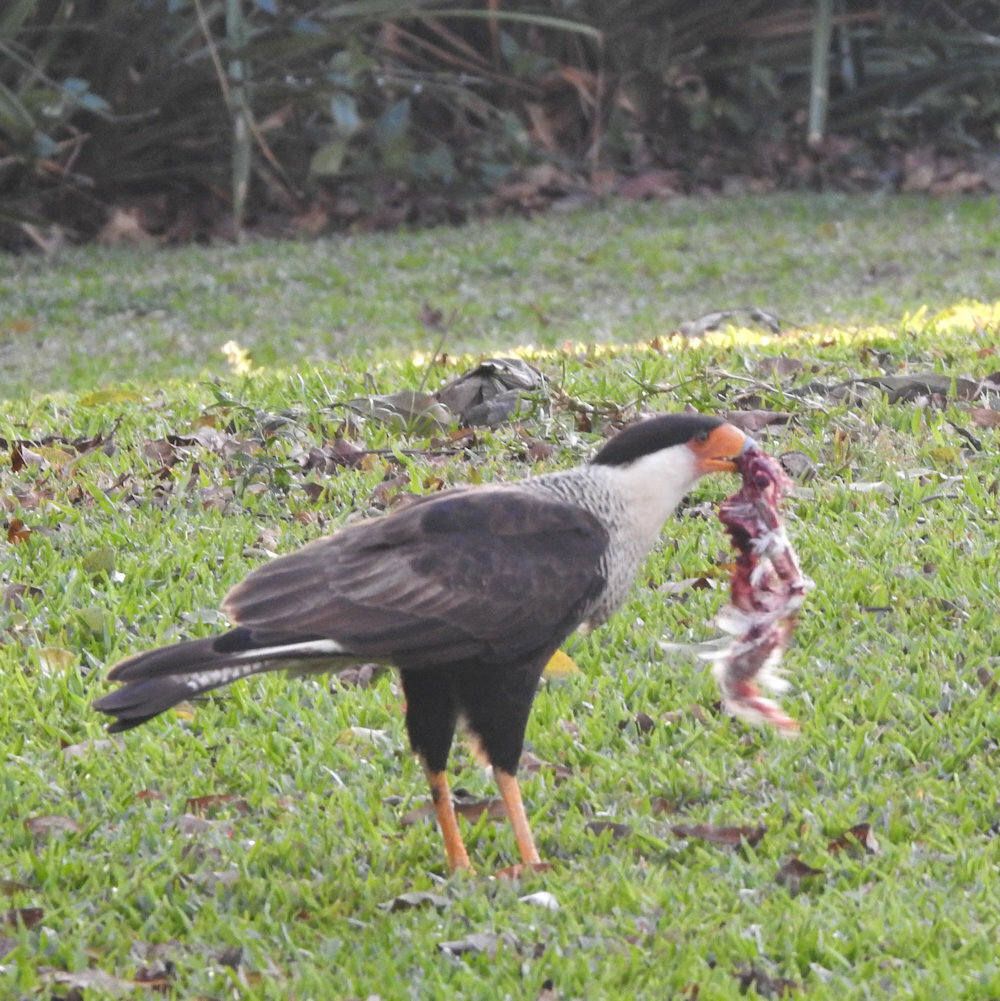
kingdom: Animalia
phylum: Chordata
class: Aves
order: Falconiformes
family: Falconidae
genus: Caracara
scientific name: Caracara plancus
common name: Southern caracara
